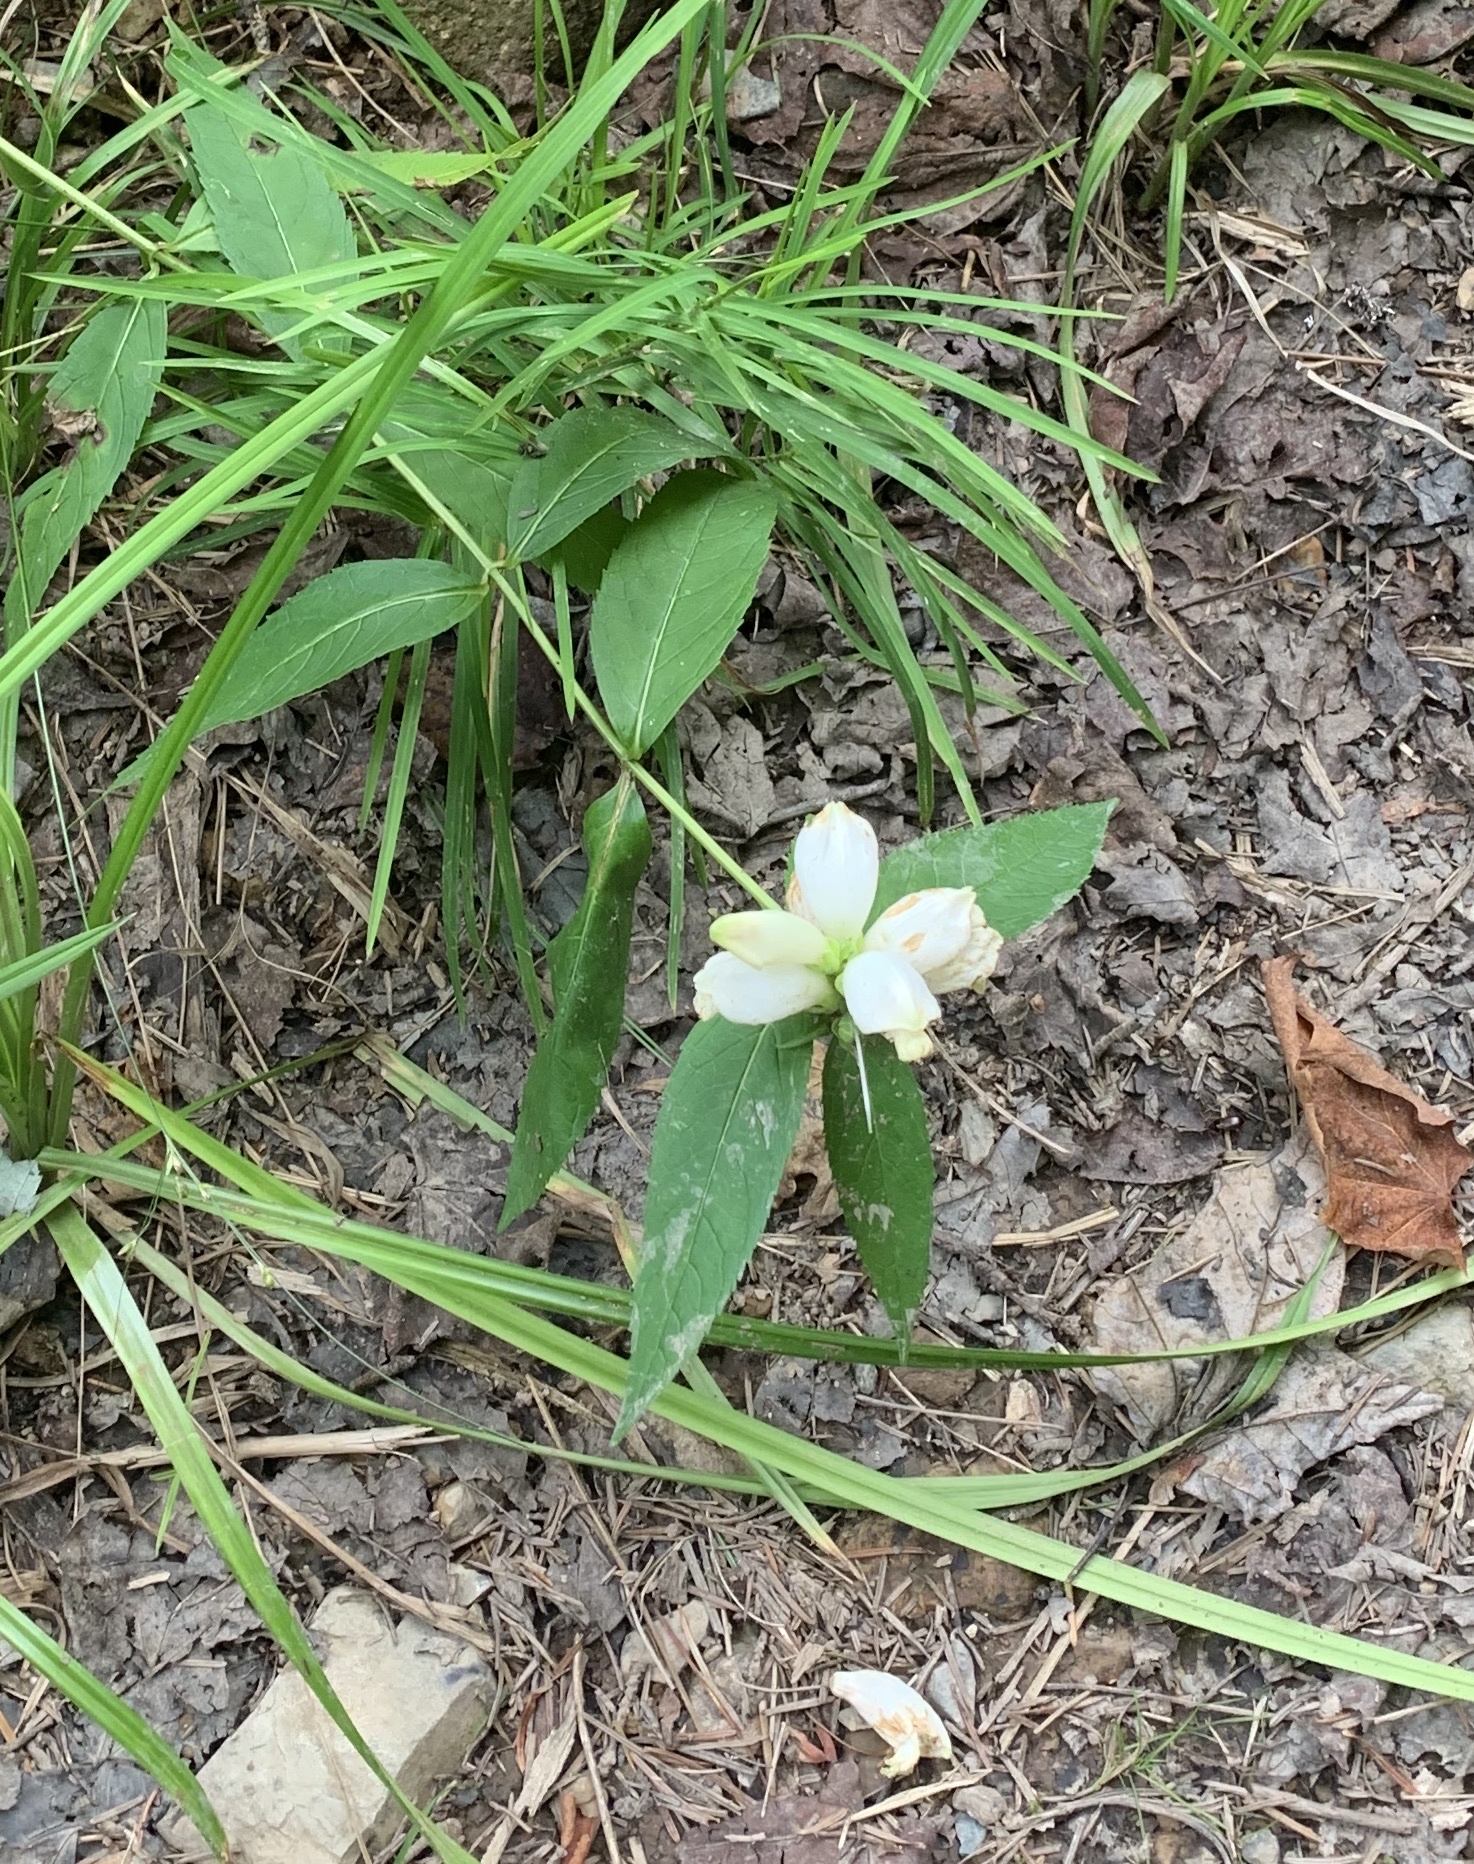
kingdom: Plantae
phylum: Tracheophyta
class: Magnoliopsida
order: Lamiales
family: Plantaginaceae
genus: Chelone
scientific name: Chelone glabra
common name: Snakehead
